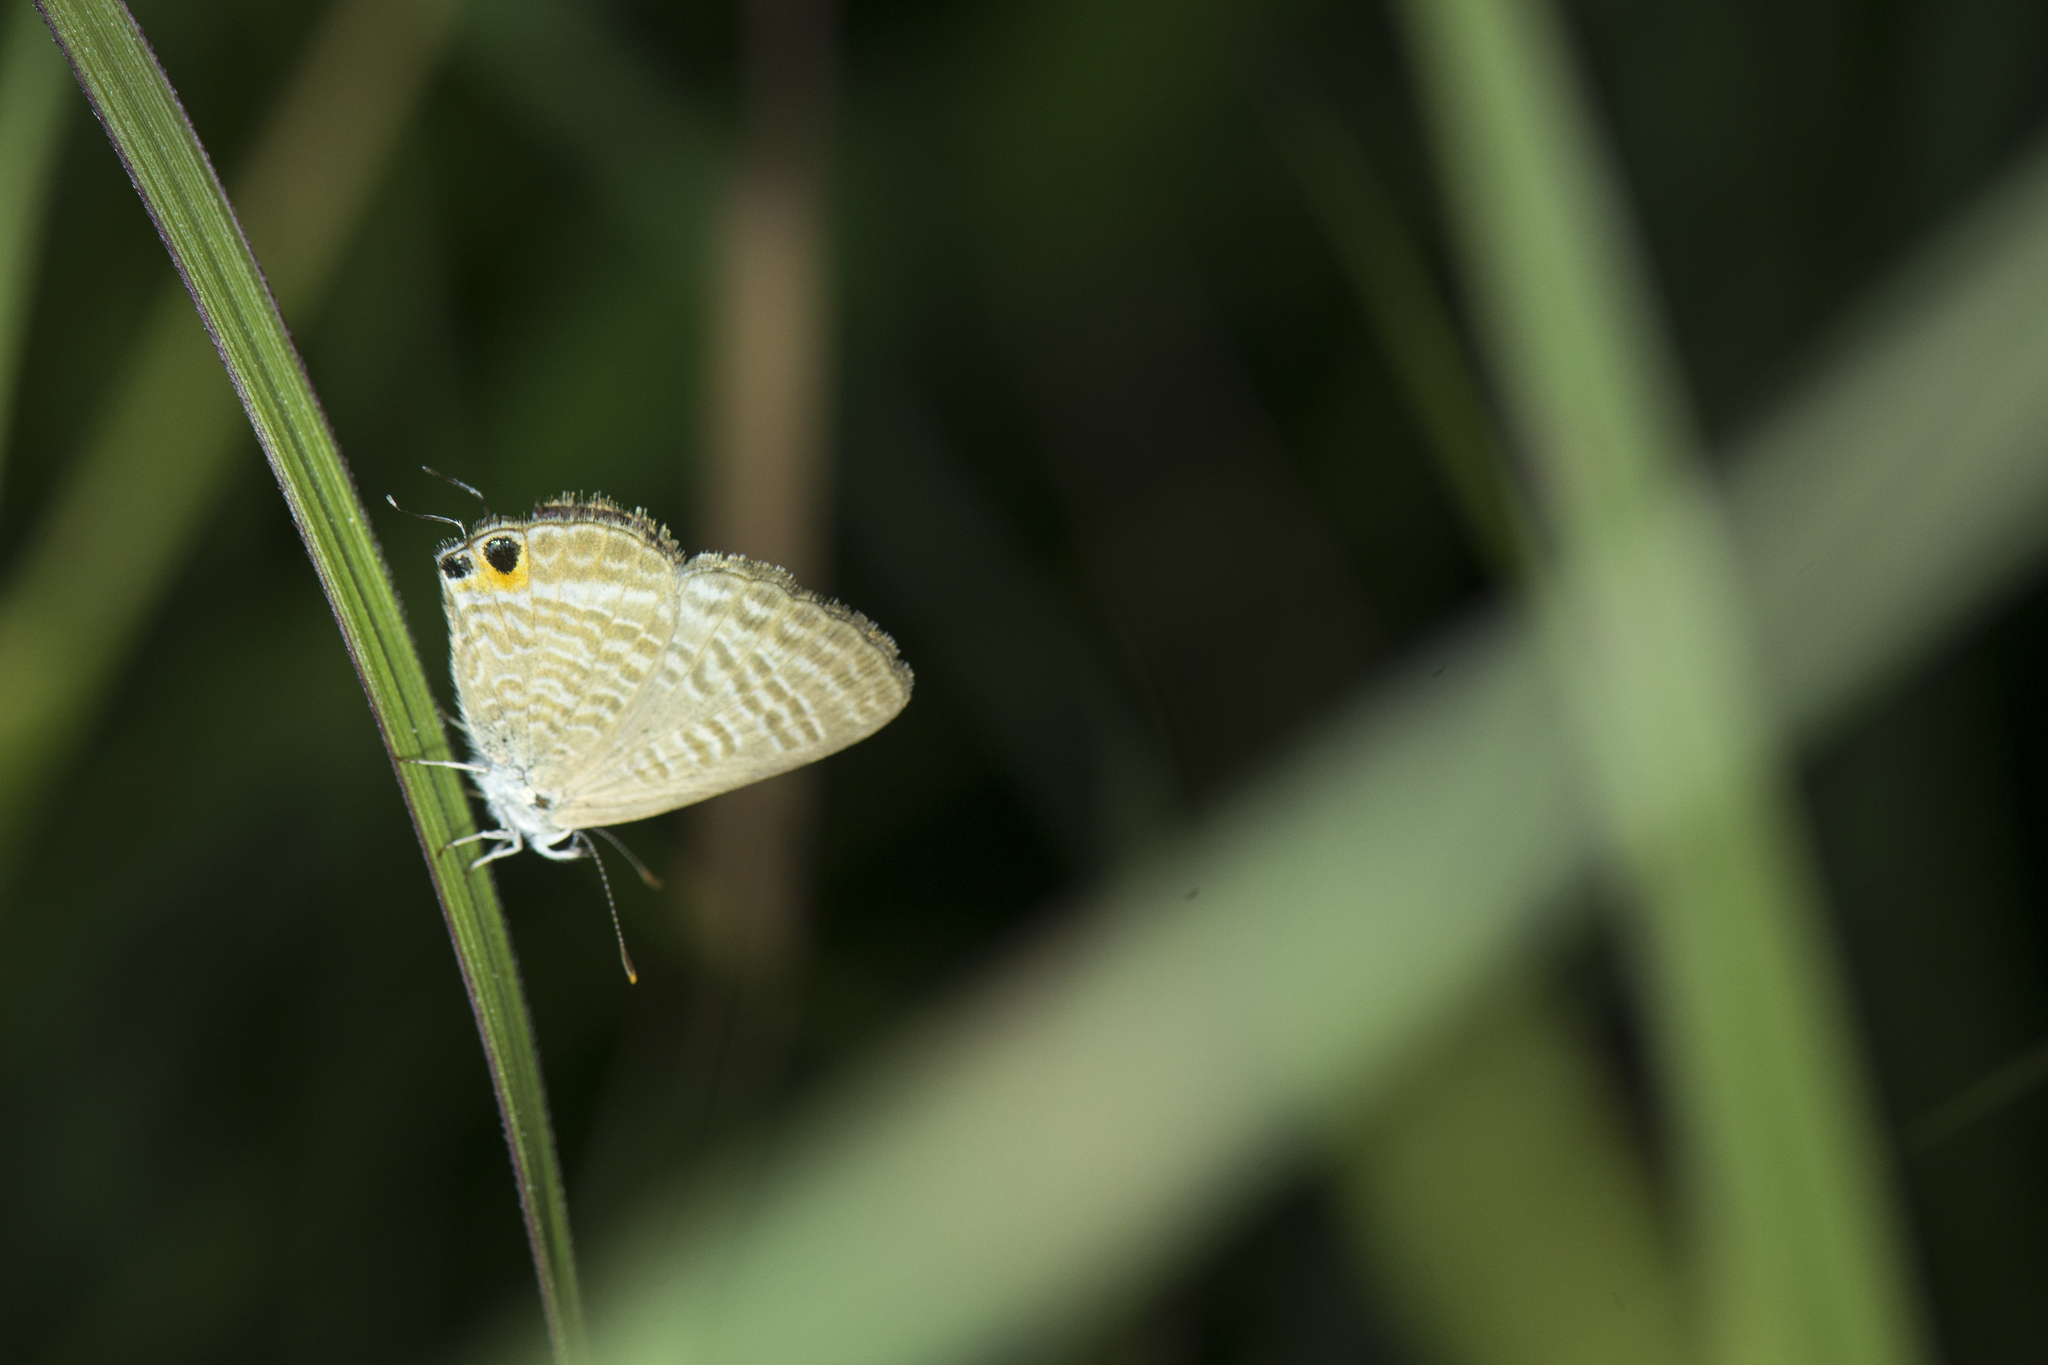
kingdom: Animalia
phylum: Arthropoda
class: Insecta
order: Lepidoptera
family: Lycaenidae
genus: Lampides
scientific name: Lampides boeticus
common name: Long-tailed blue
